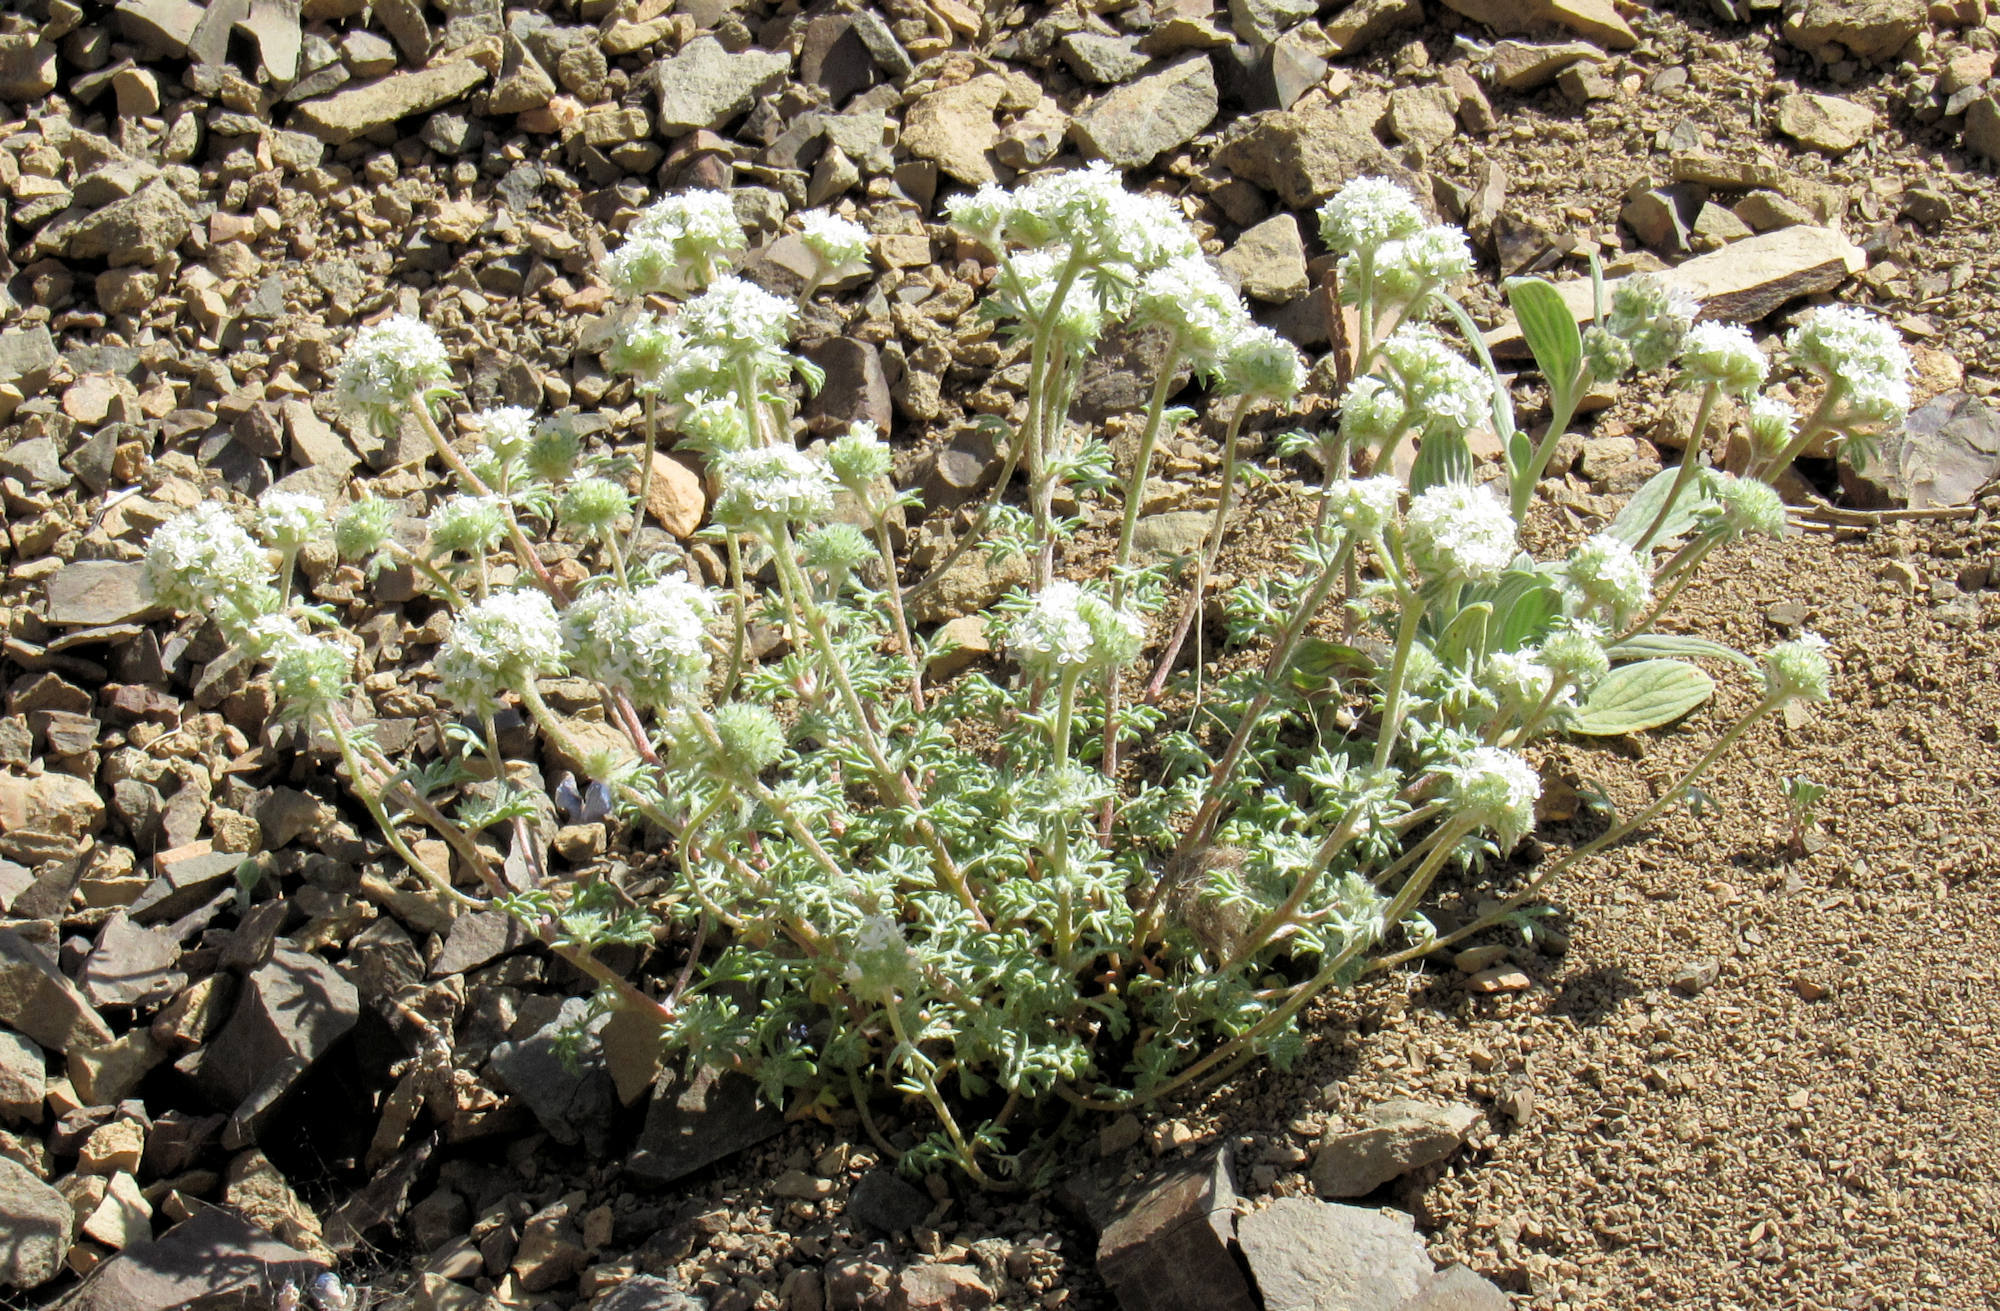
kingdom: Plantae
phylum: Tracheophyta
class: Magnoliopsida
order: Ericales
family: Polemoniaceae
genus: Ipomopsis
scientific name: Ipomopsis congesta
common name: Ball-head gilia
